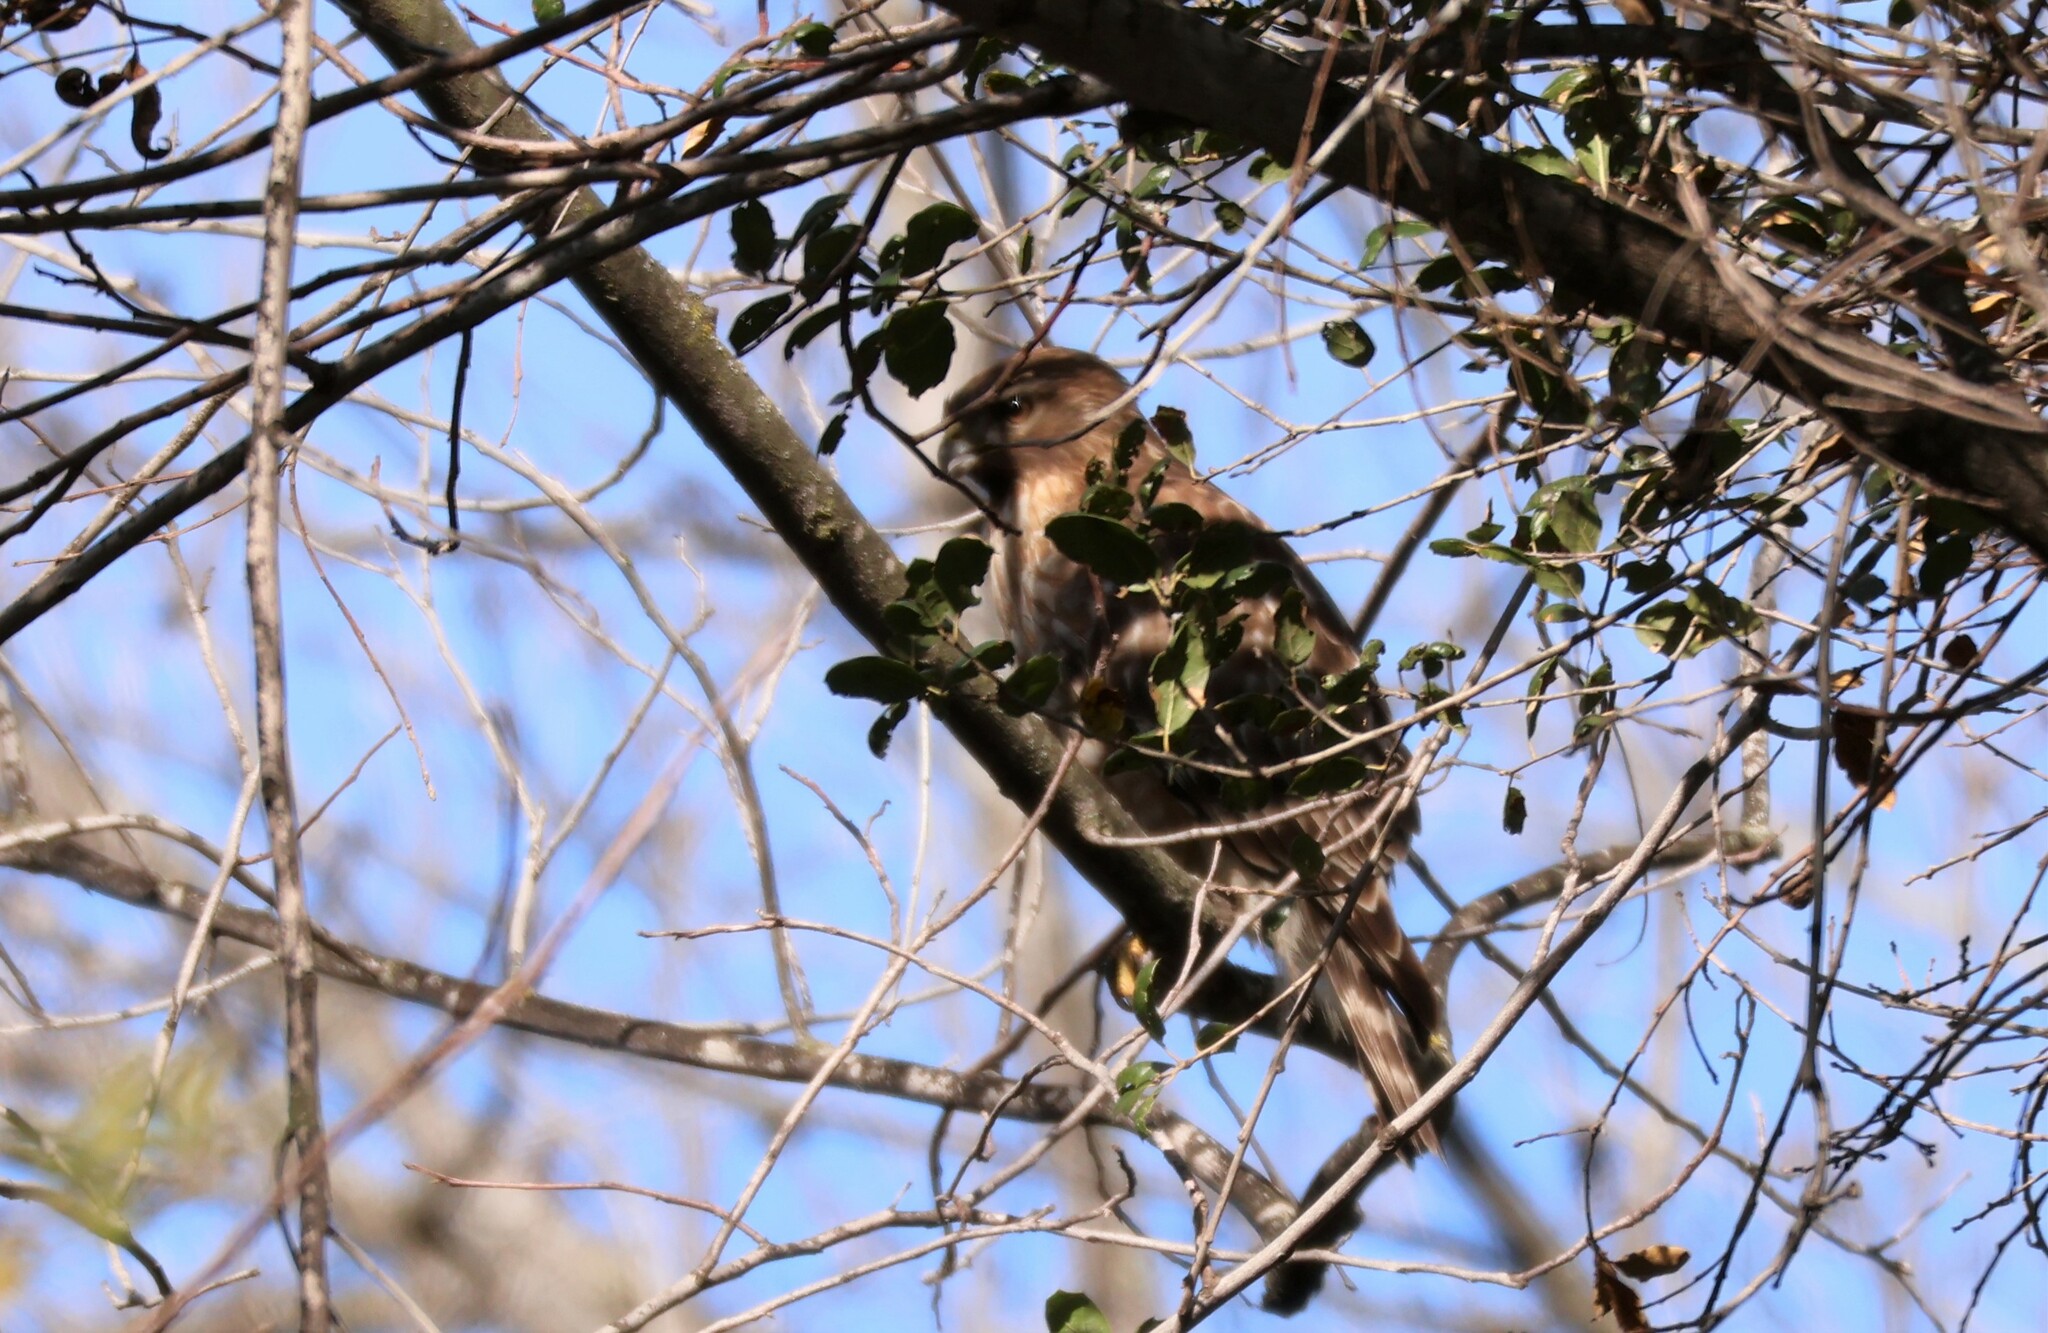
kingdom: Animalia
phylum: Chordata
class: Aves
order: Accipitriformes
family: Accipitridae
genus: Buteo
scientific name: Buteo lineatus
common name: Red-shouldered hawk
